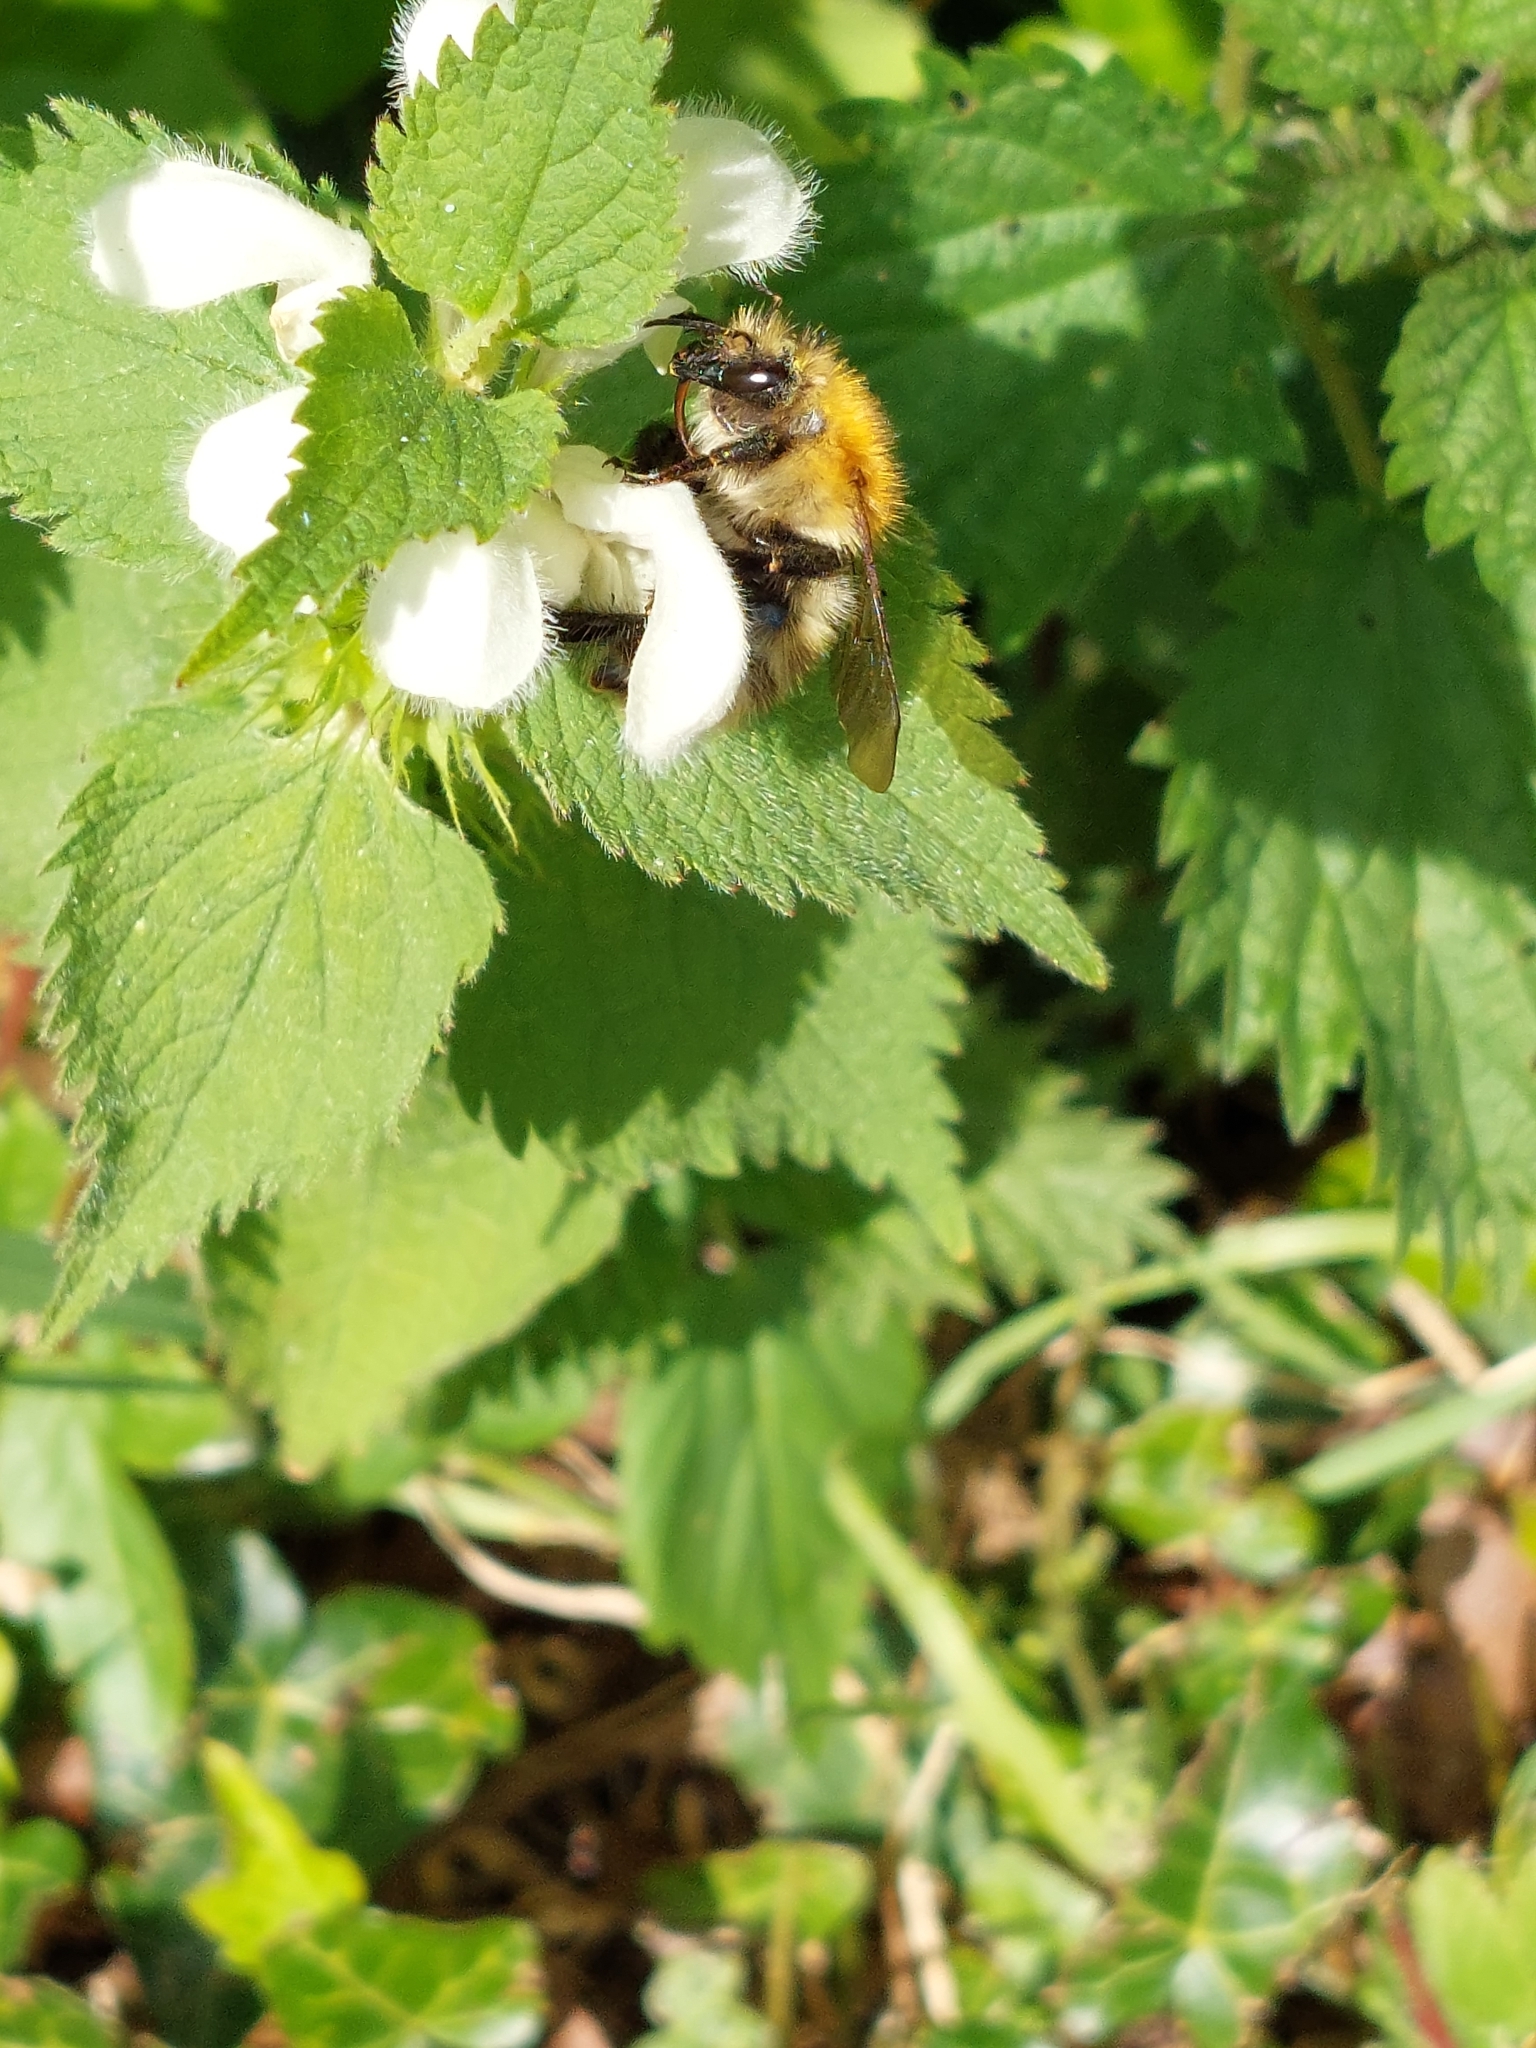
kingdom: Animalia
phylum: Arthropoda
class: Insecta
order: Hymenoptera
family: Apidae
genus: Bombus
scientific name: Bombus pascuorum
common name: Common carder bee
